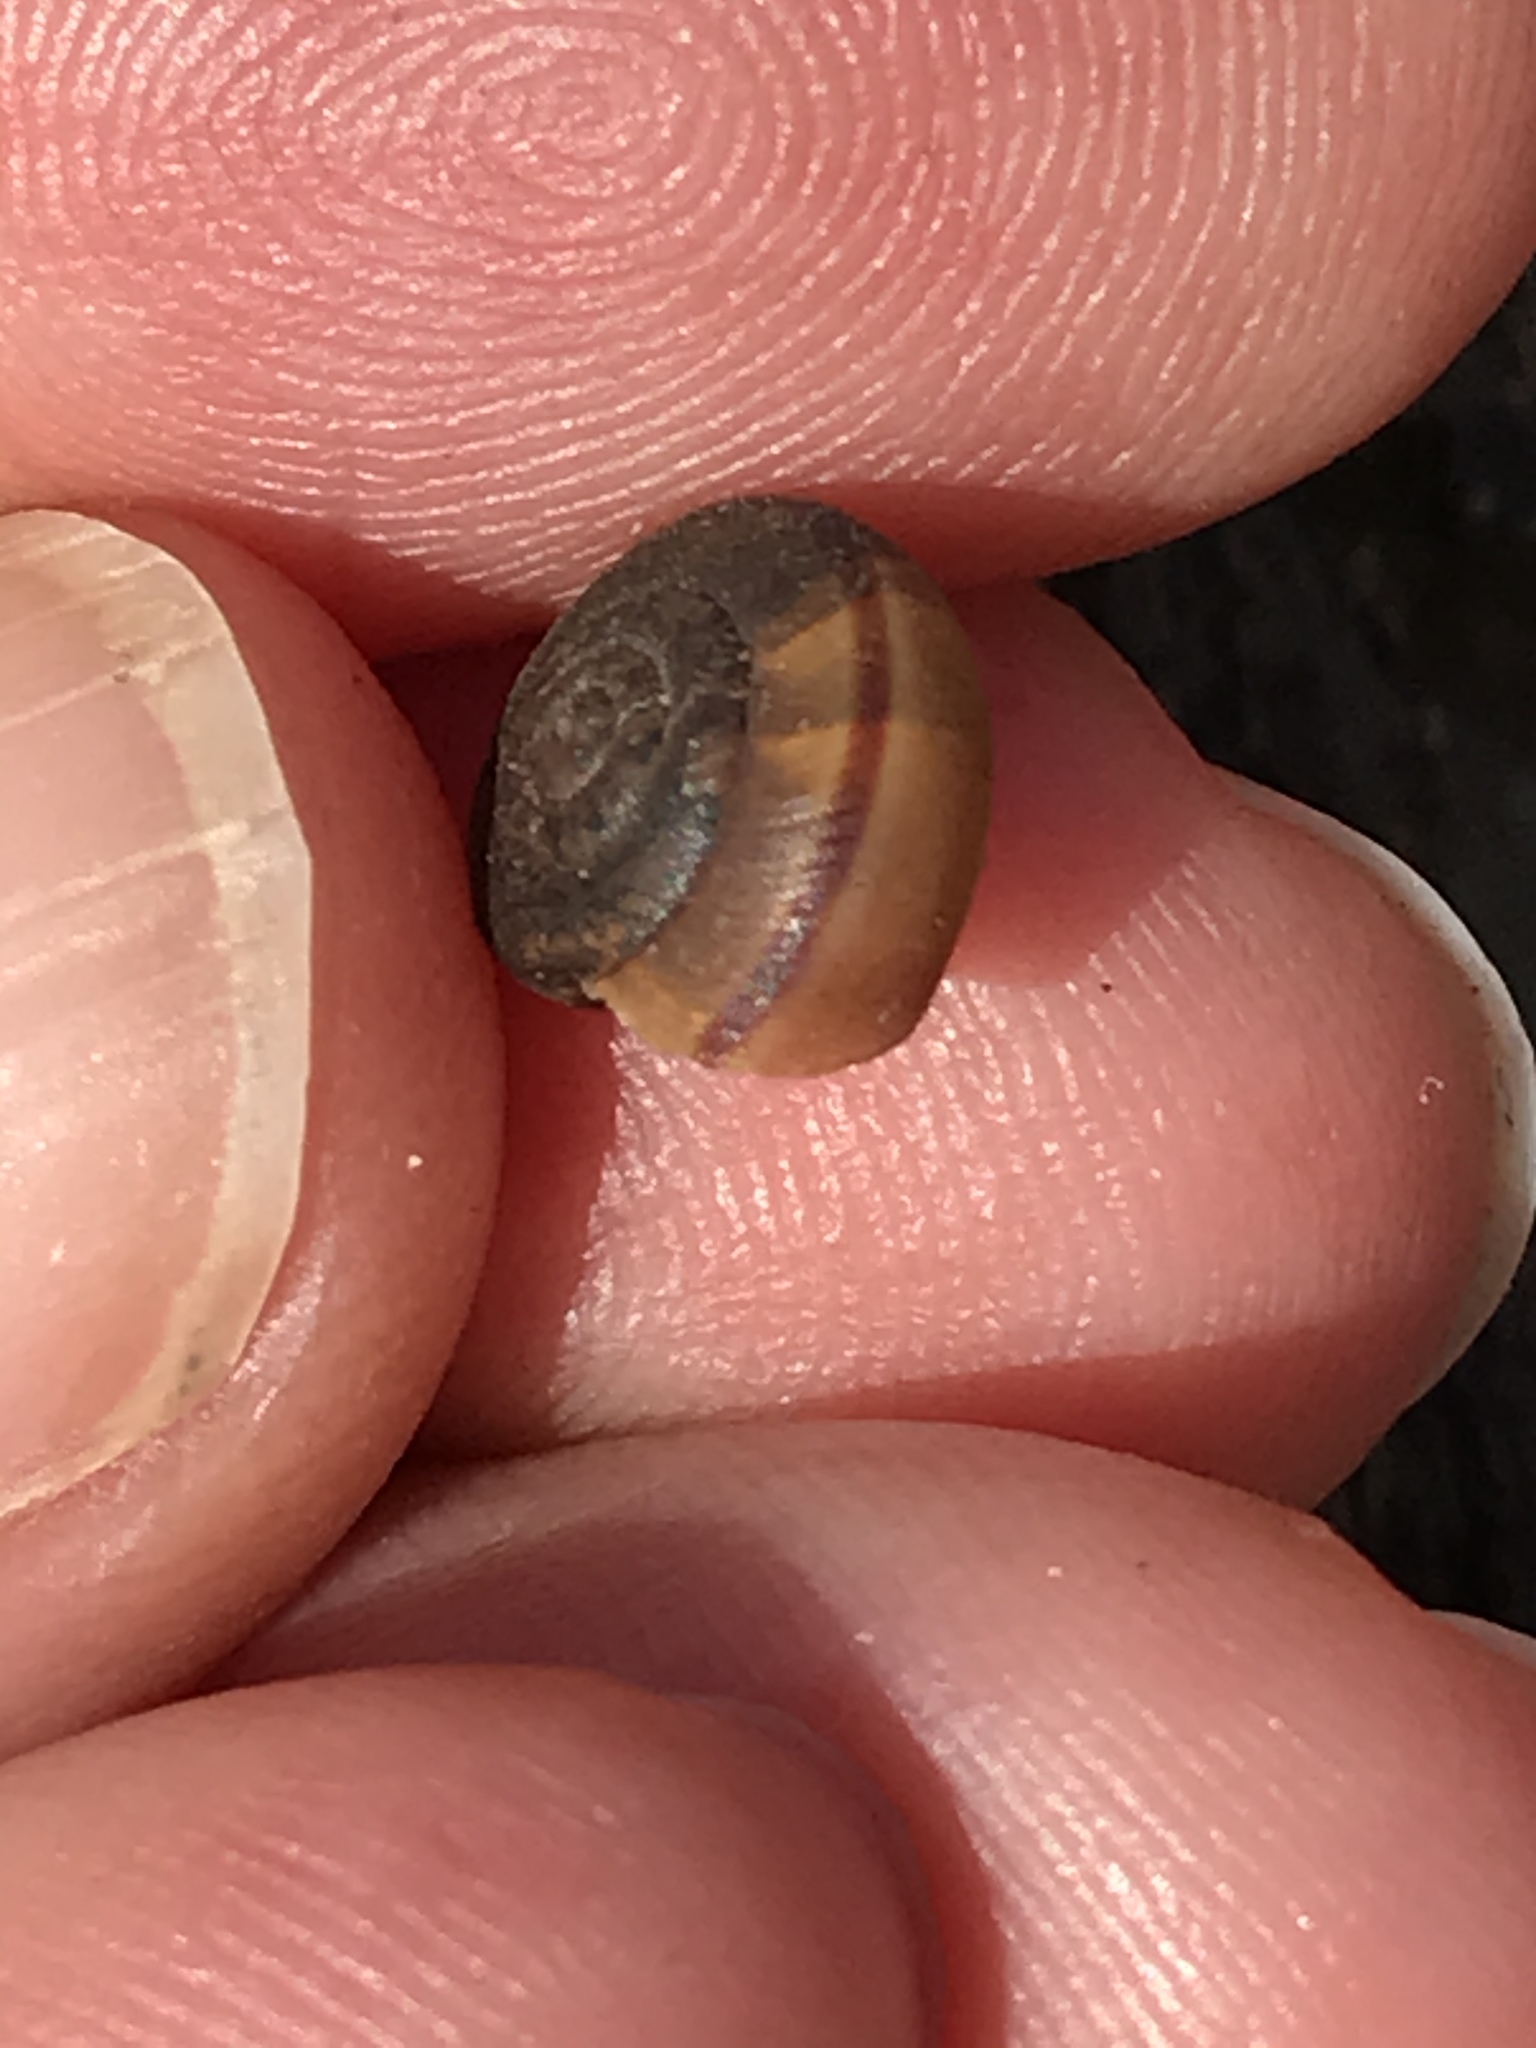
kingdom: Animalia
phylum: Mollusca
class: Gastropoda
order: Stylommatophora
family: Xanthonychidae
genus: Helminthoglypta
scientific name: Helminthoglypta umbilicata
